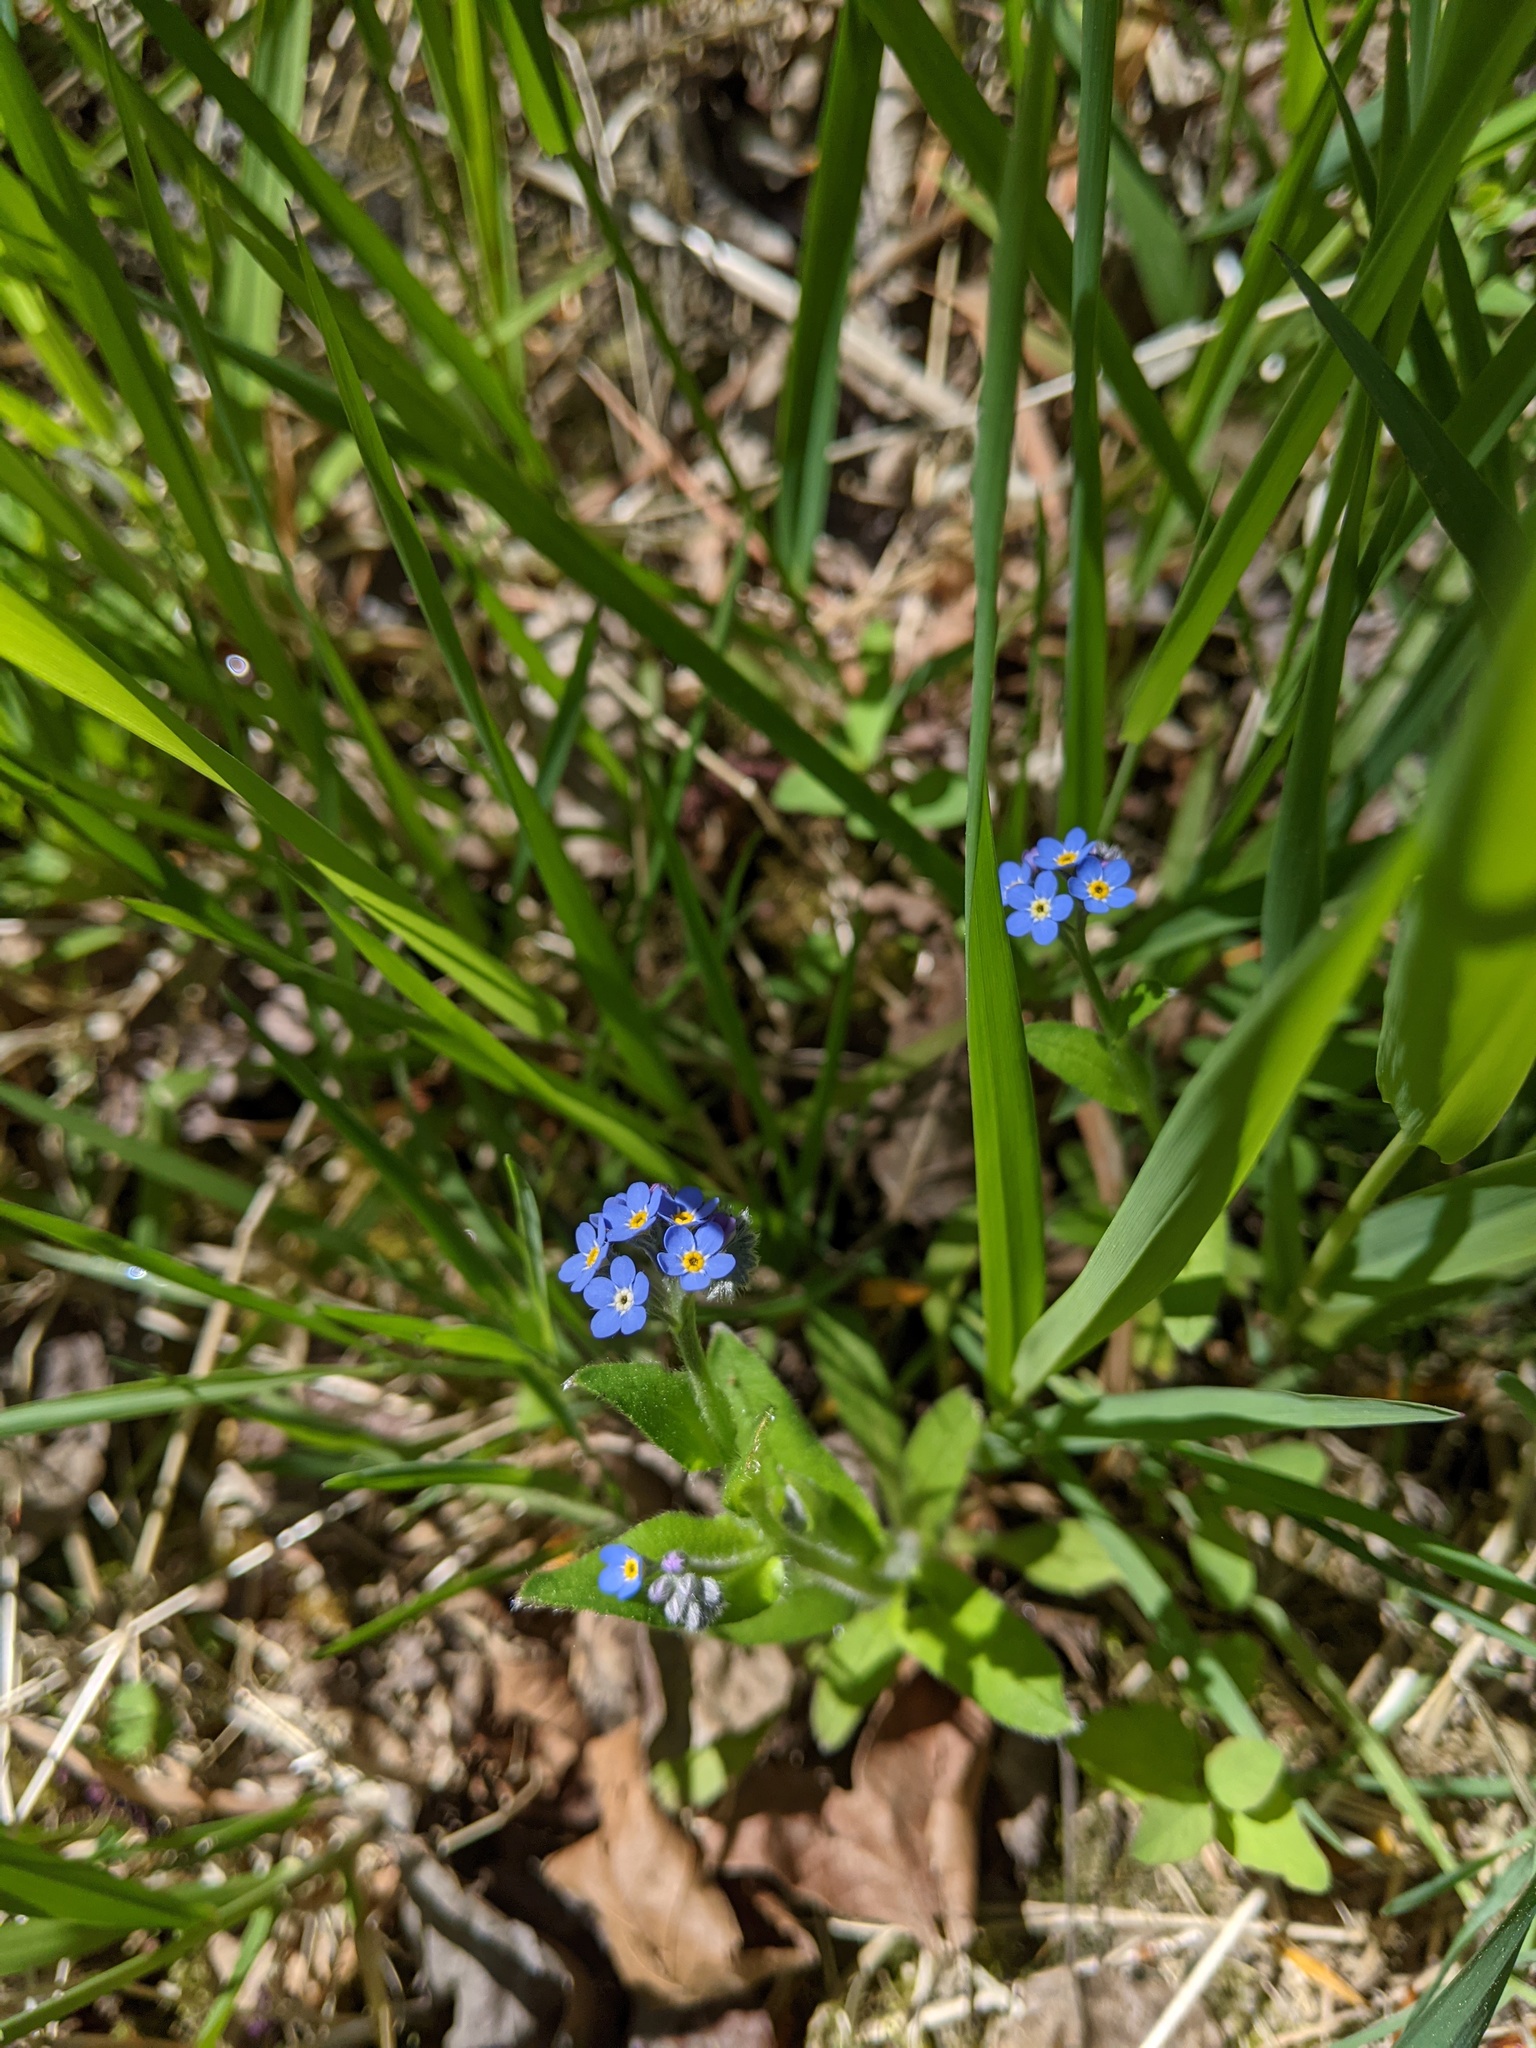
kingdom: Plantae
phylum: Tracheophyta
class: Magnoliopsida
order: Boraginales
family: Boraginaceae
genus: Myosotis
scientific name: Myosotis sylvatica
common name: Wood forget-me-not
